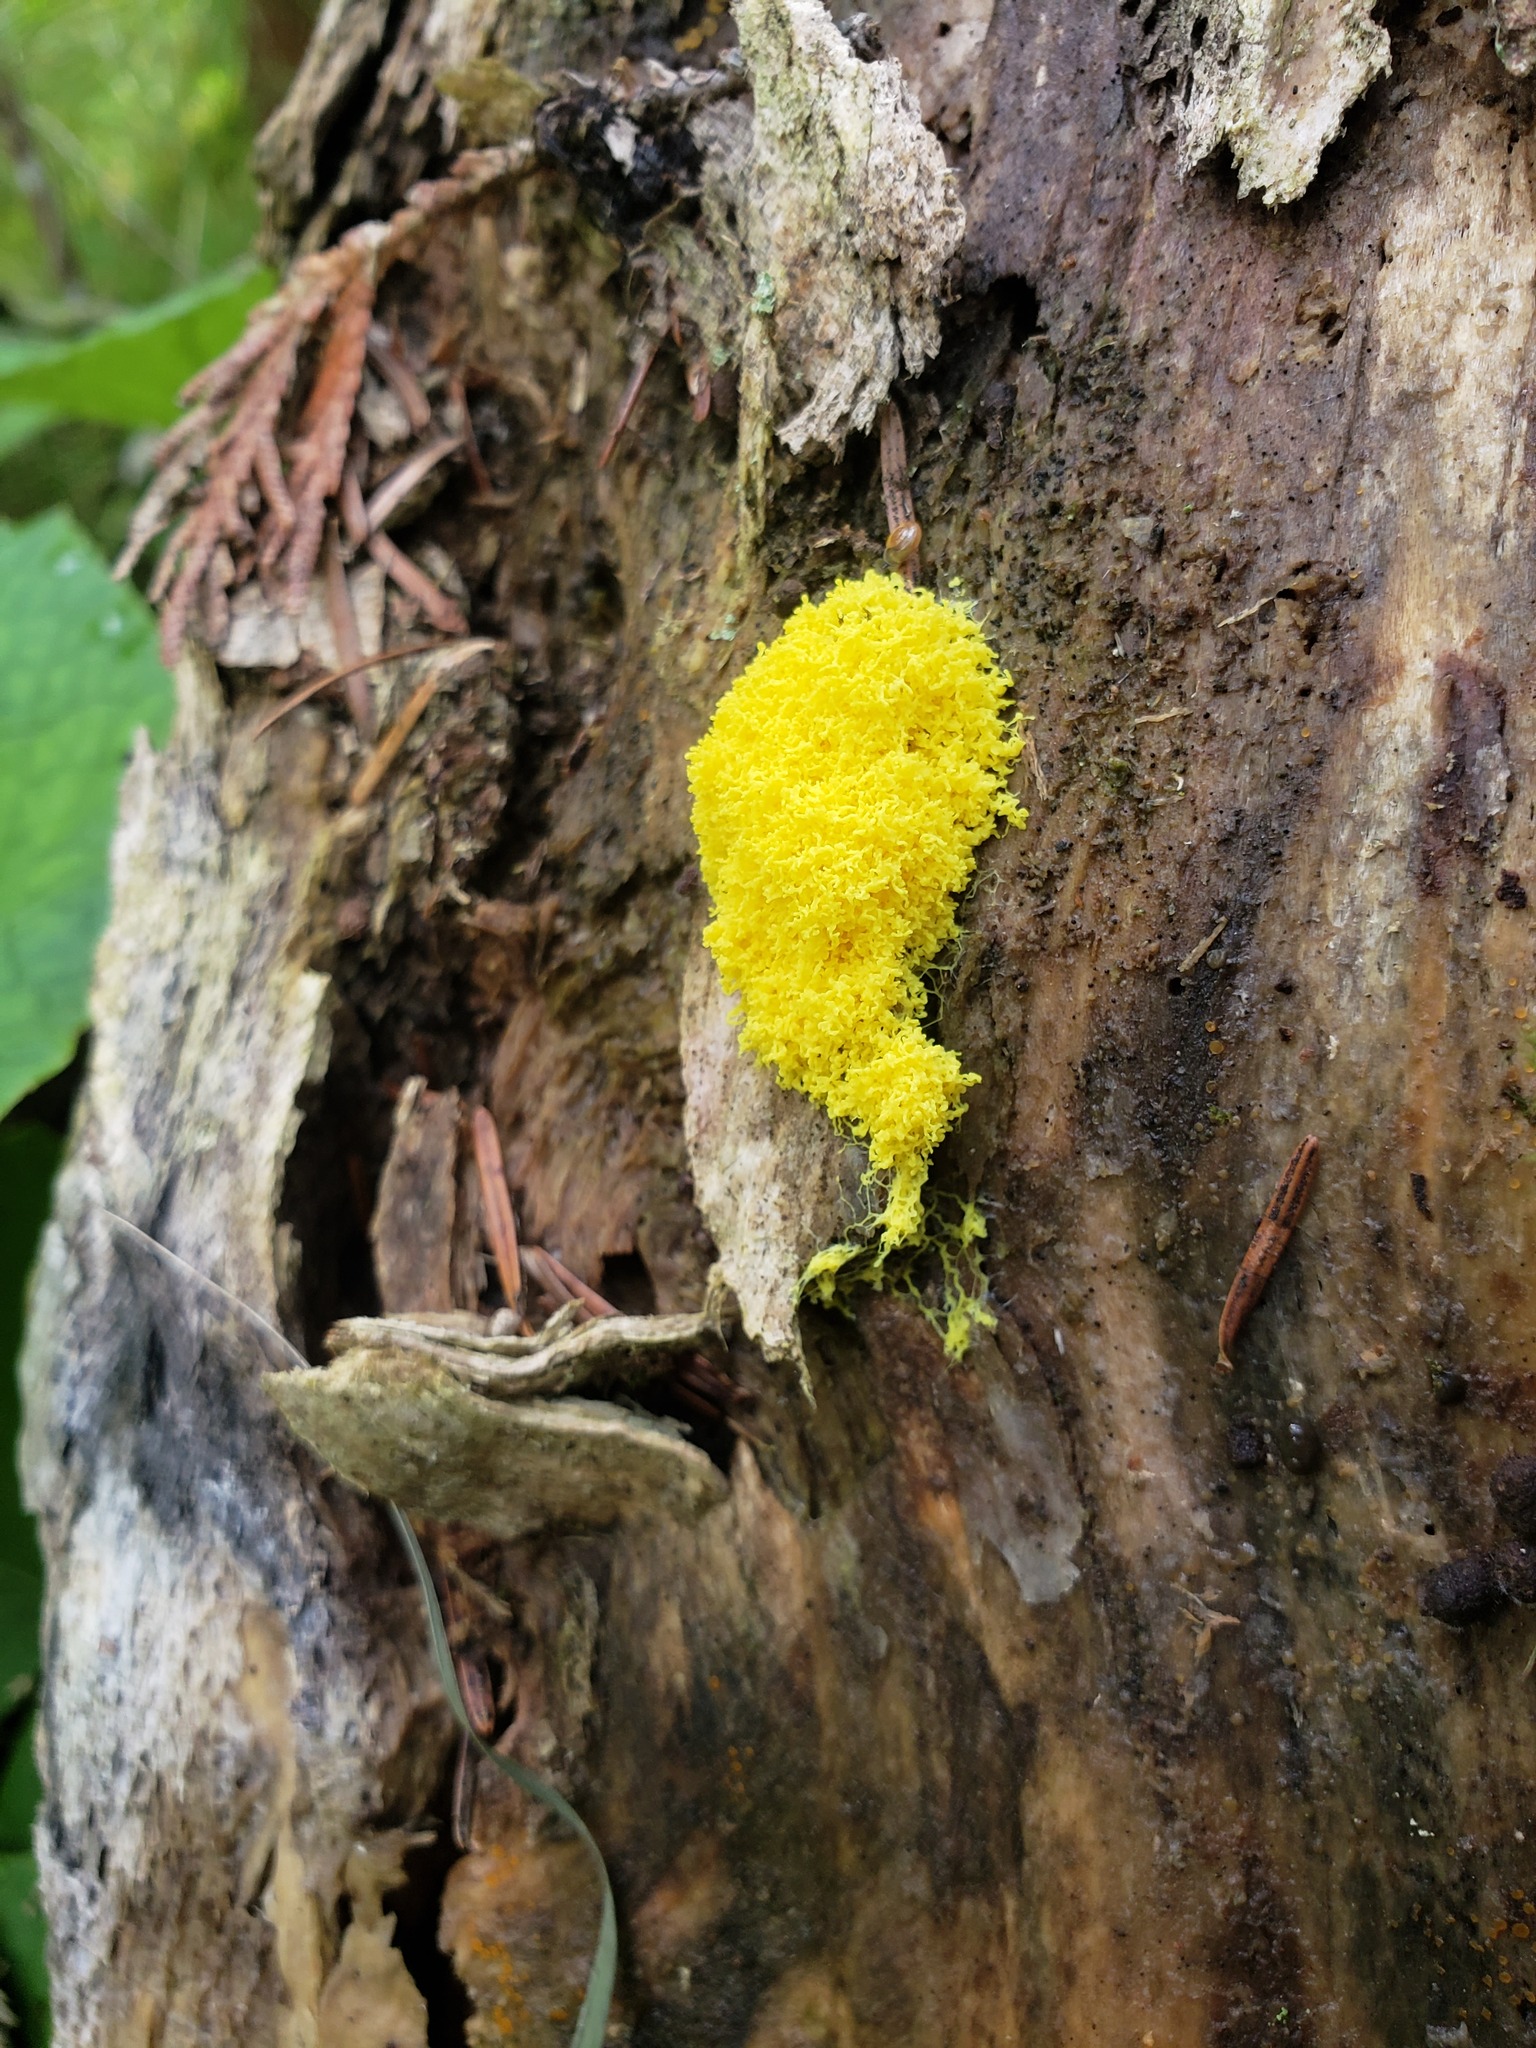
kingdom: Protozoa
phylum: Mycetozoa
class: Myxomycetes
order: Physarales
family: Physaraceae
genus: Fuligo
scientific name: Fuligo septica
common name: Dog vomit slime mold
